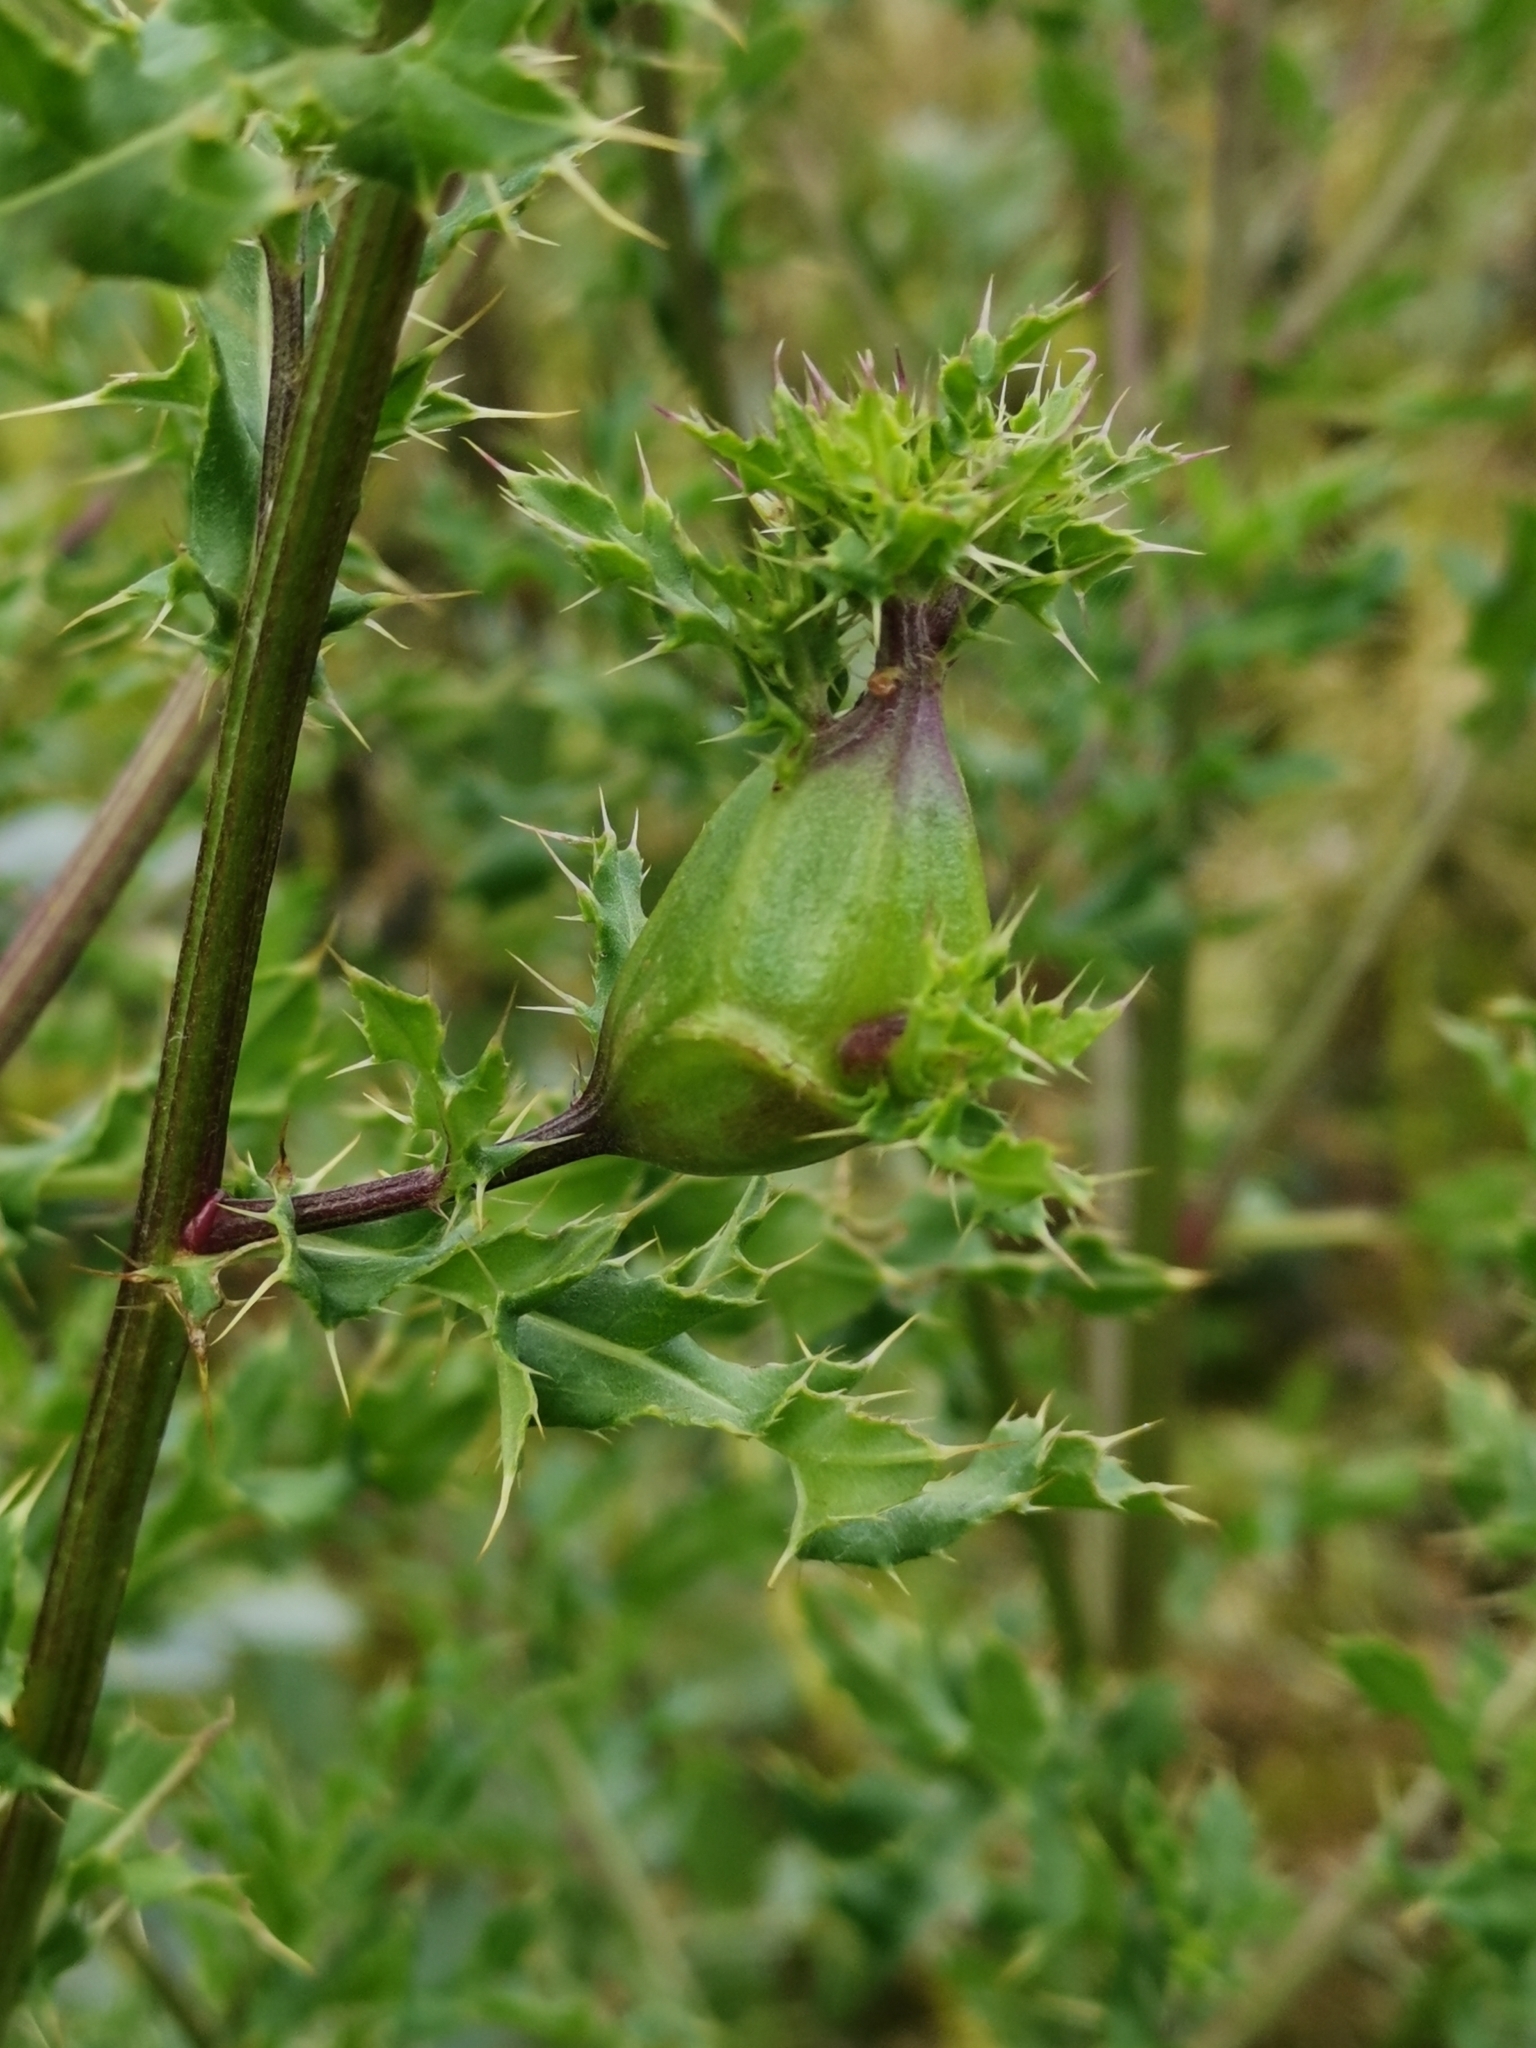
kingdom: Animalia
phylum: Arthropoda
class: Insecta
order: Diptera
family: Tephritidae
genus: Urophora
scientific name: Urophora cardui
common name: Fruit fly
